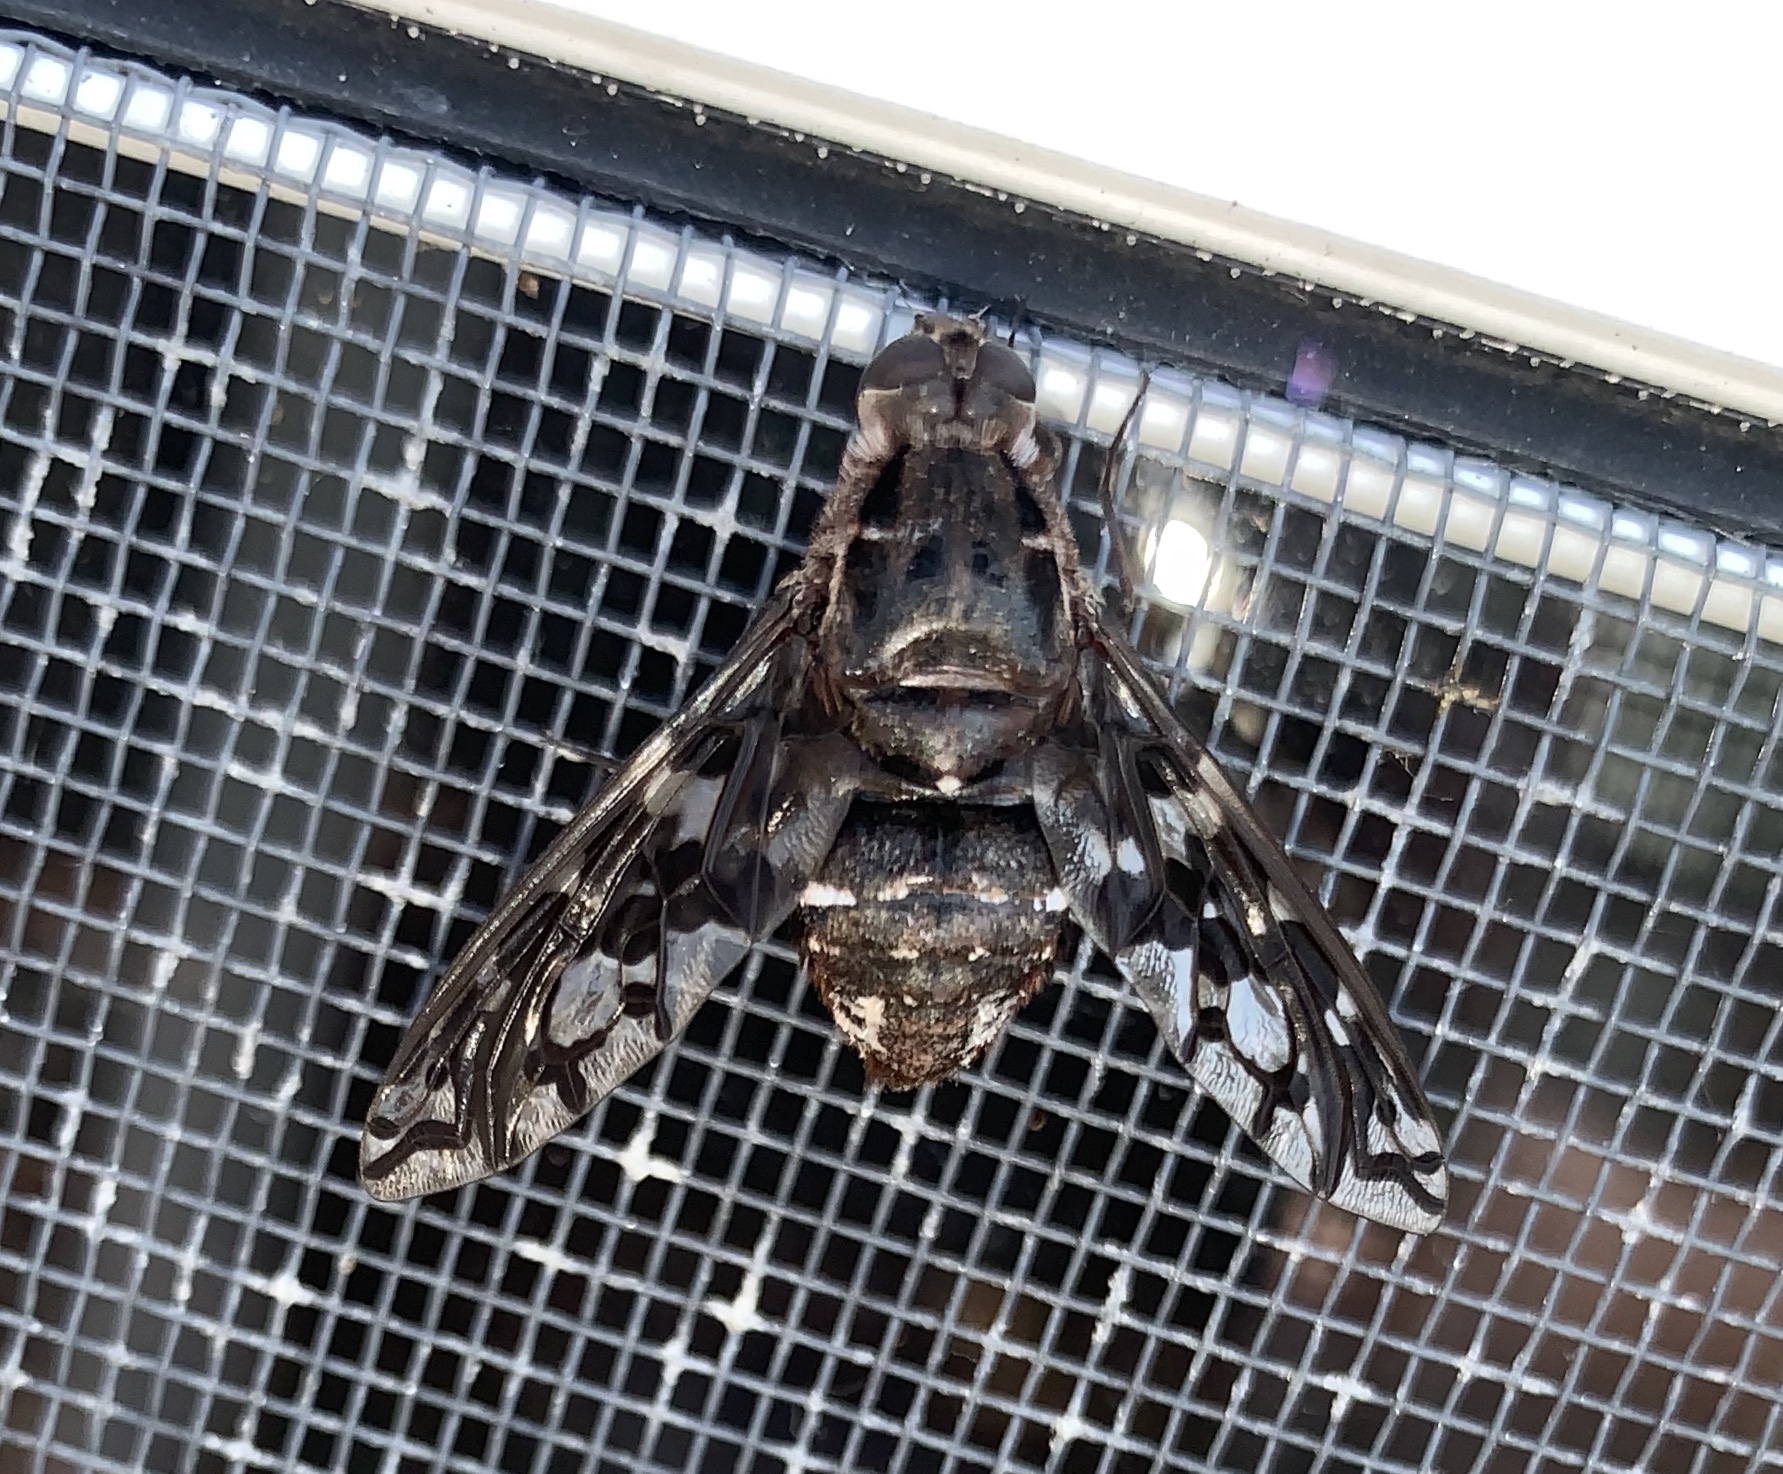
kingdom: Animalia
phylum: Arthropoda
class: Insecta
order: Diptera
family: Bombyliidae
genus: Xenox
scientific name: Xenox tigrinus
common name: Tiger bee fly
